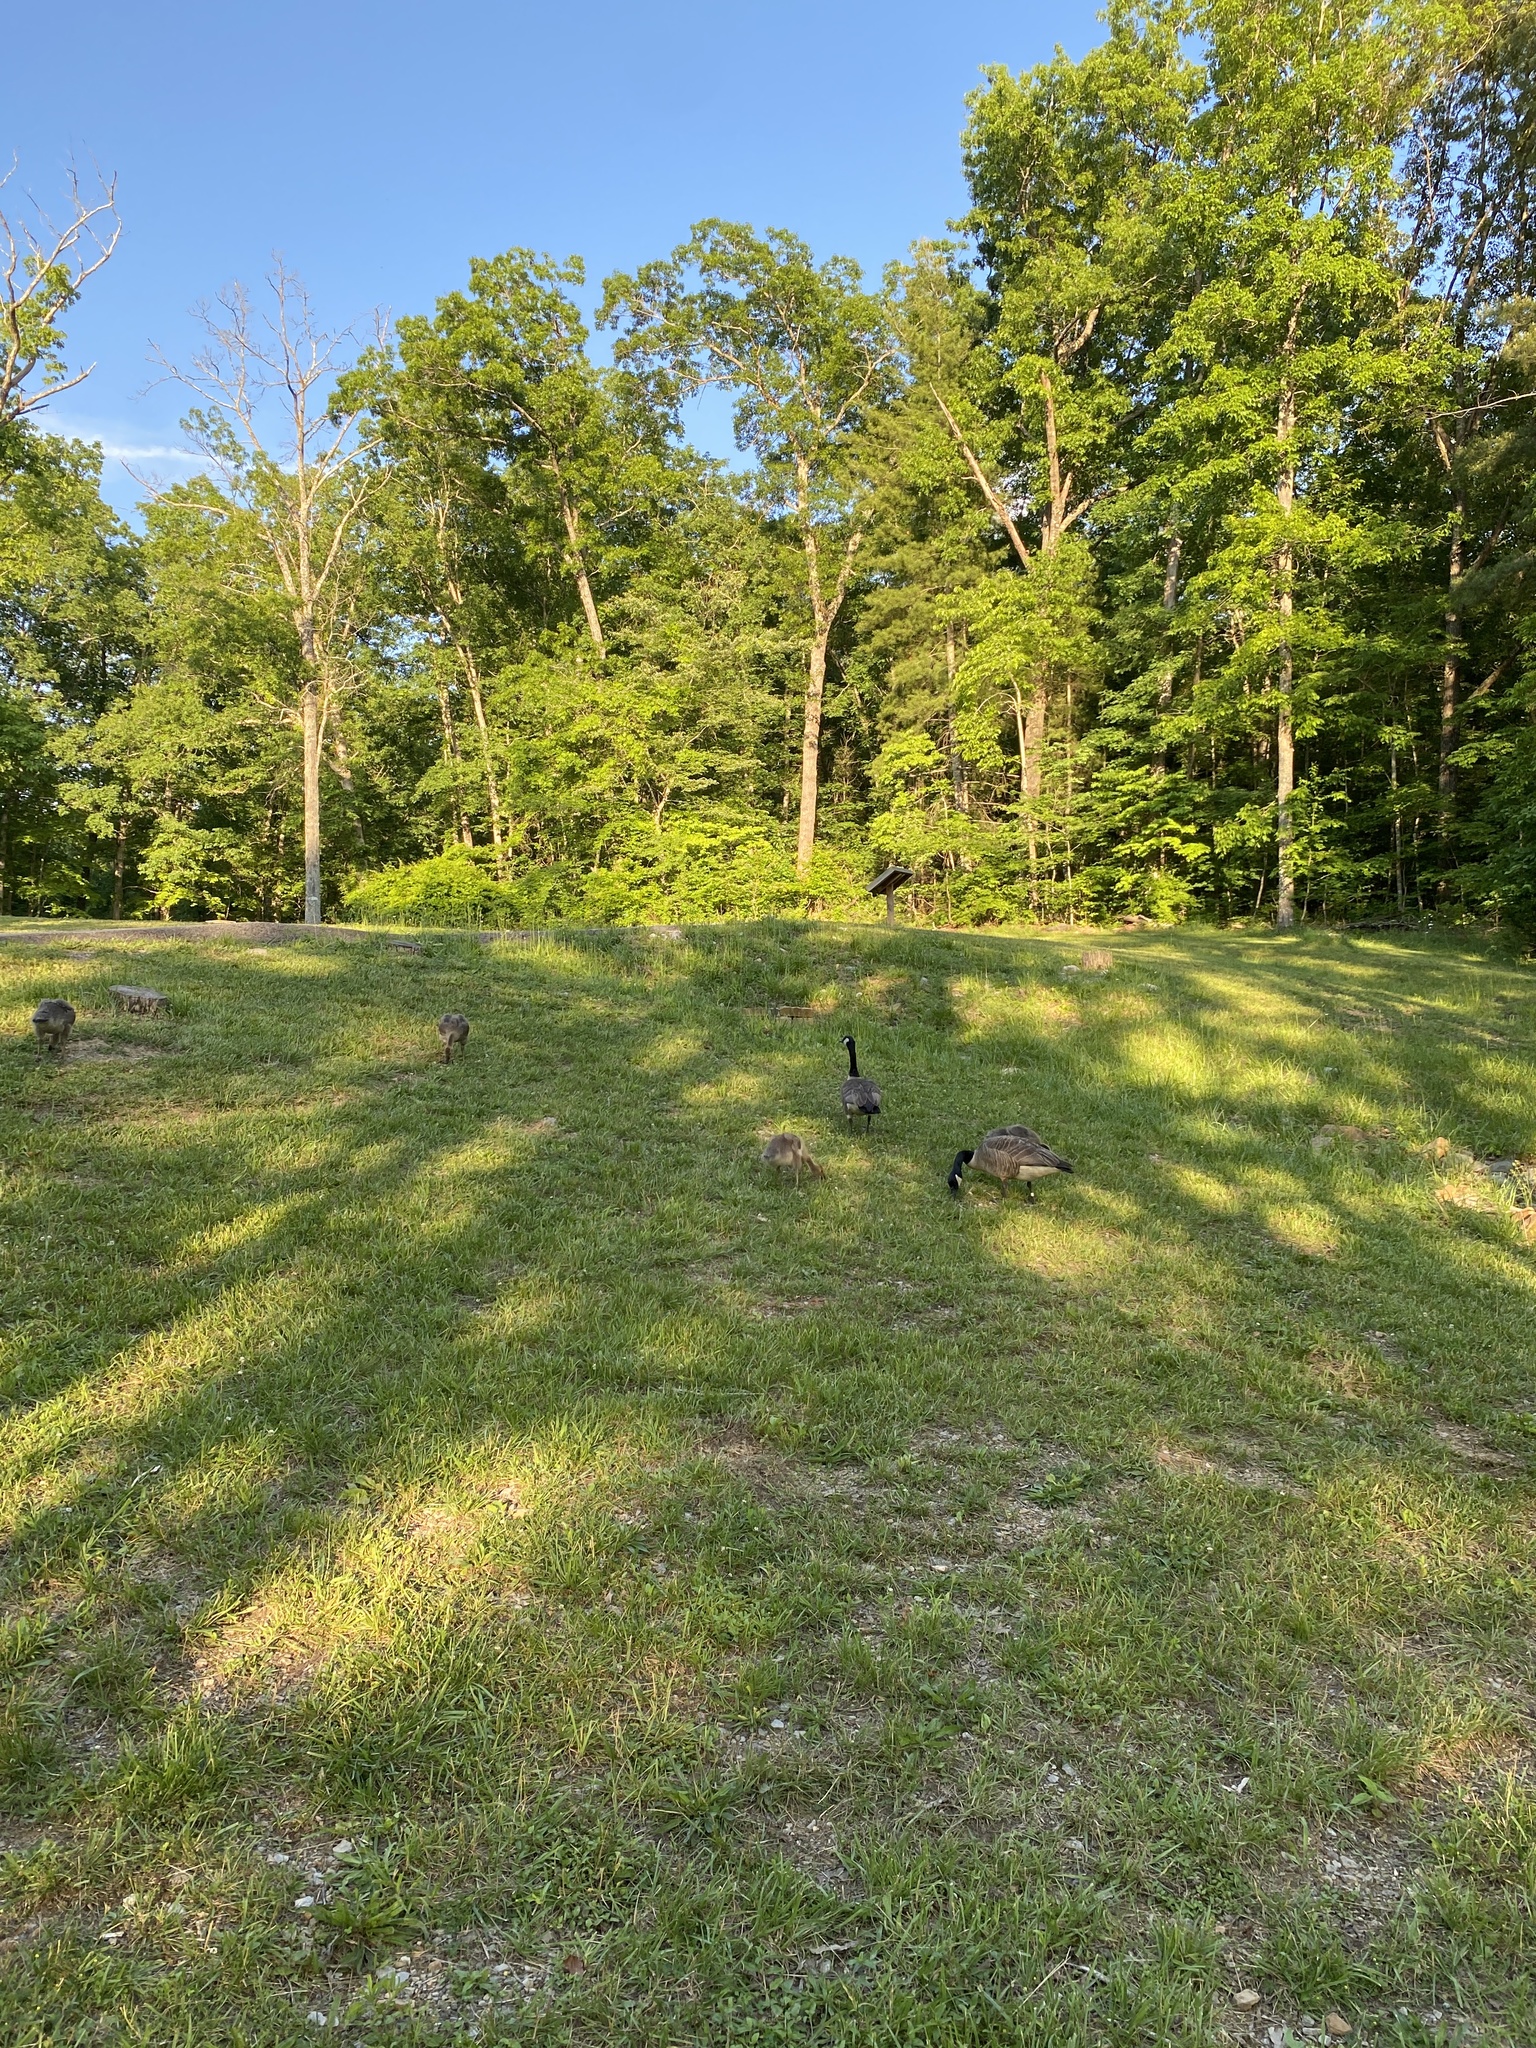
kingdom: Animalia
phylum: Chordata
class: Aves
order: Anseriformes
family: Anatidae
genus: Branta
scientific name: Branta canadensis
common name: Canada goose
